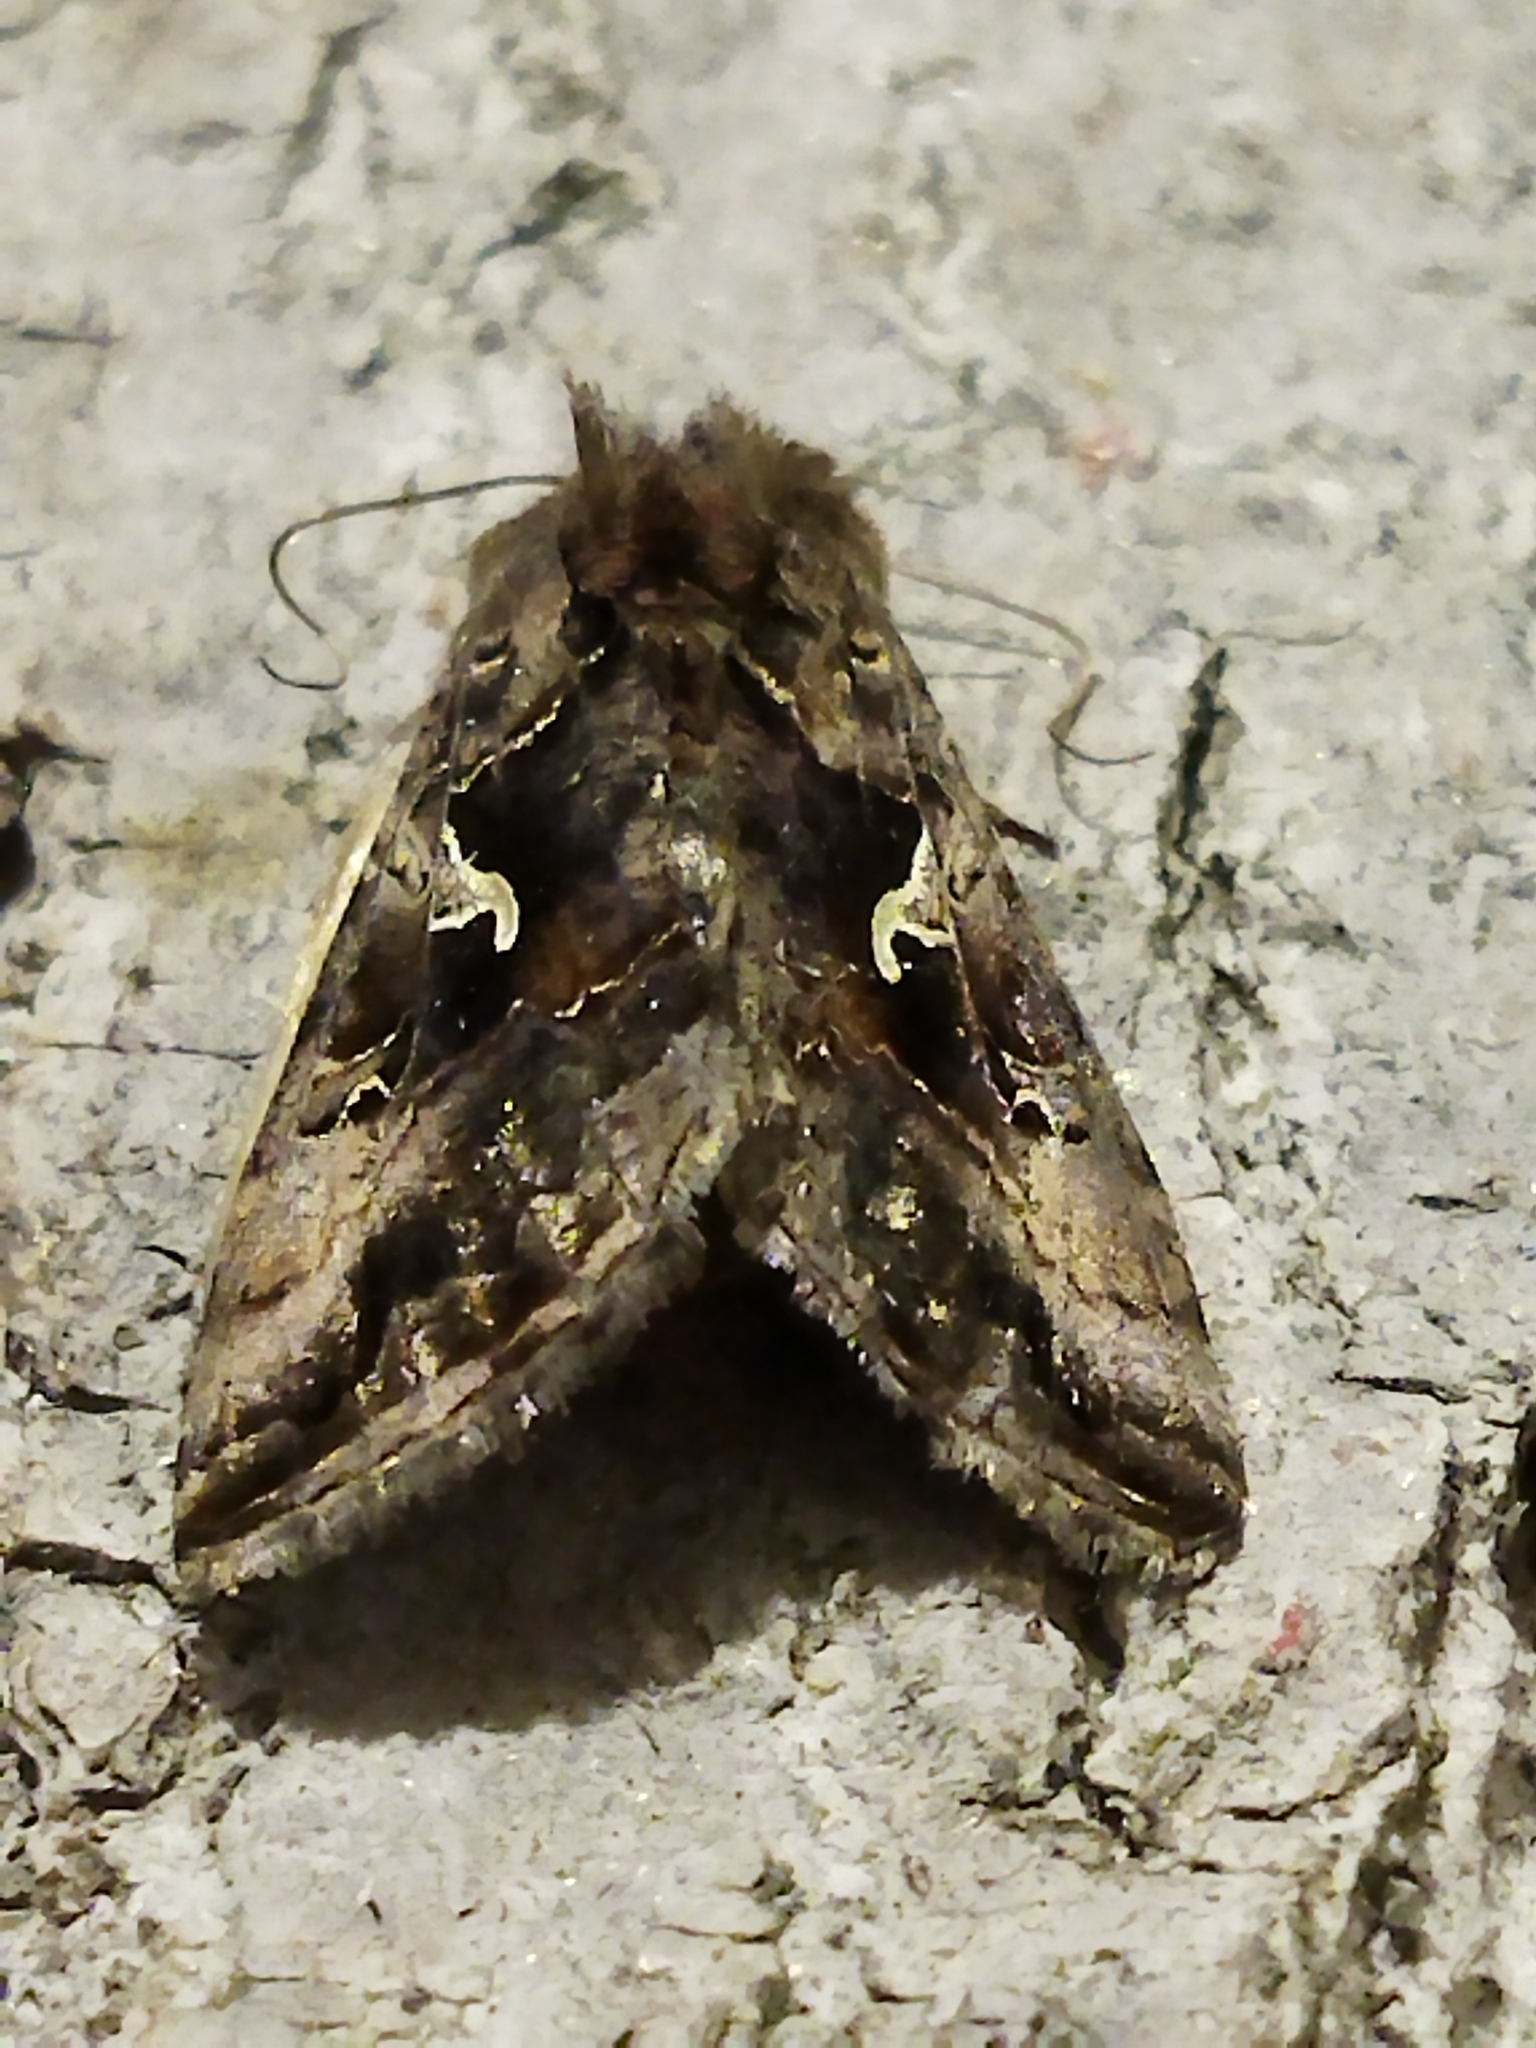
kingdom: Animalia
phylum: Arthropoda
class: Insecta
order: Lepidoptera
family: Noctuidae
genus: Autographa
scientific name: Autographa gamma
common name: Silver y
